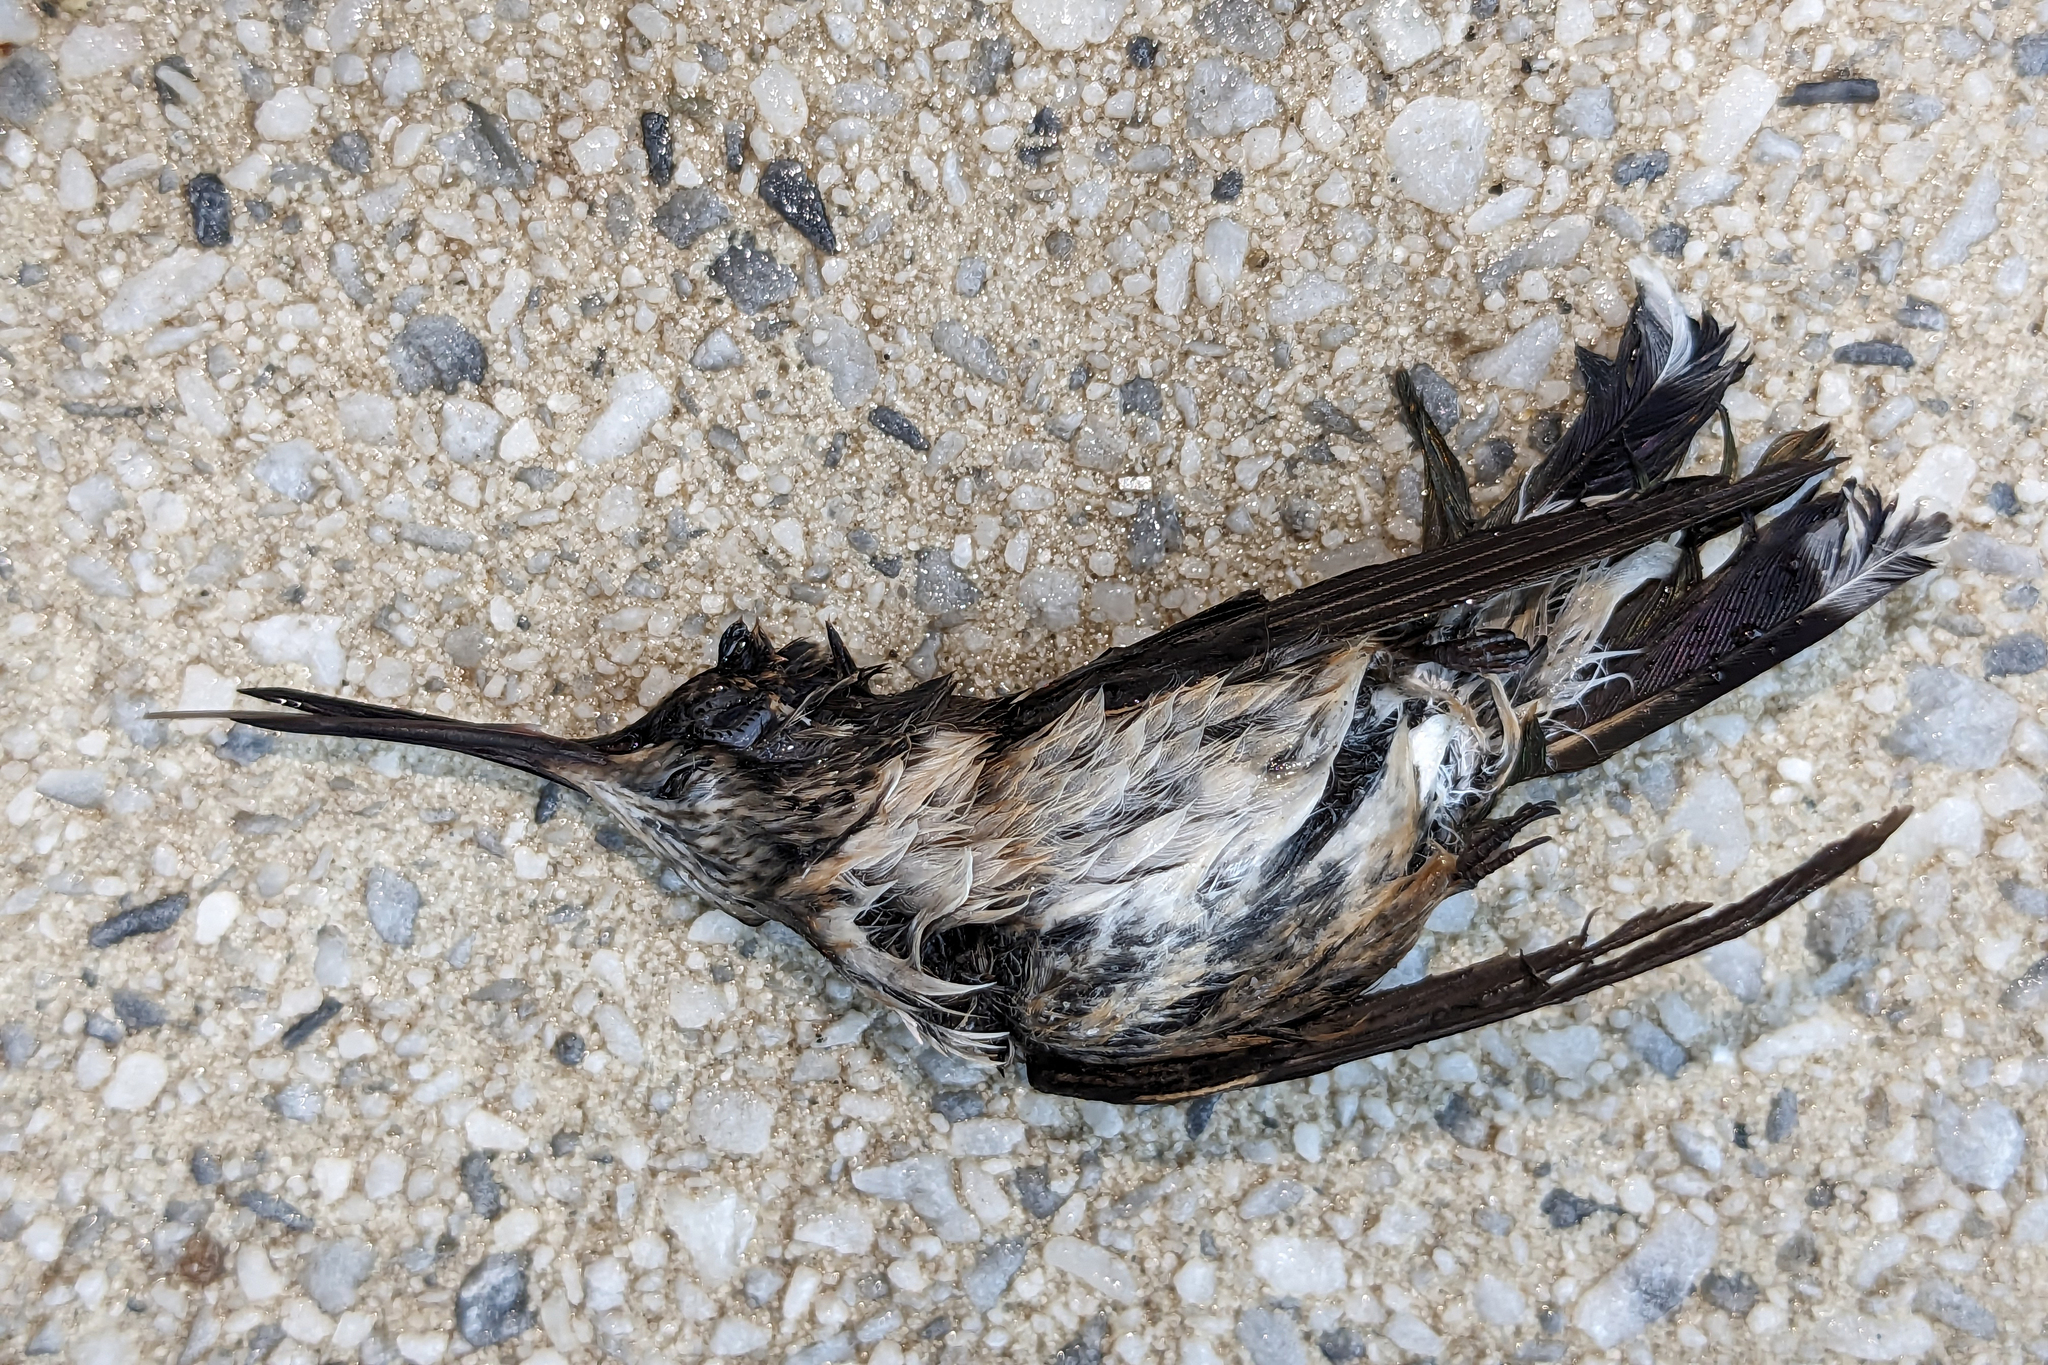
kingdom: Animalia
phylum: Chordata
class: Aves
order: Apodiformes
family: Trochilidae
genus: Archilochus
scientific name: Archilochus colubris
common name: Ruby-throated hummingbird
